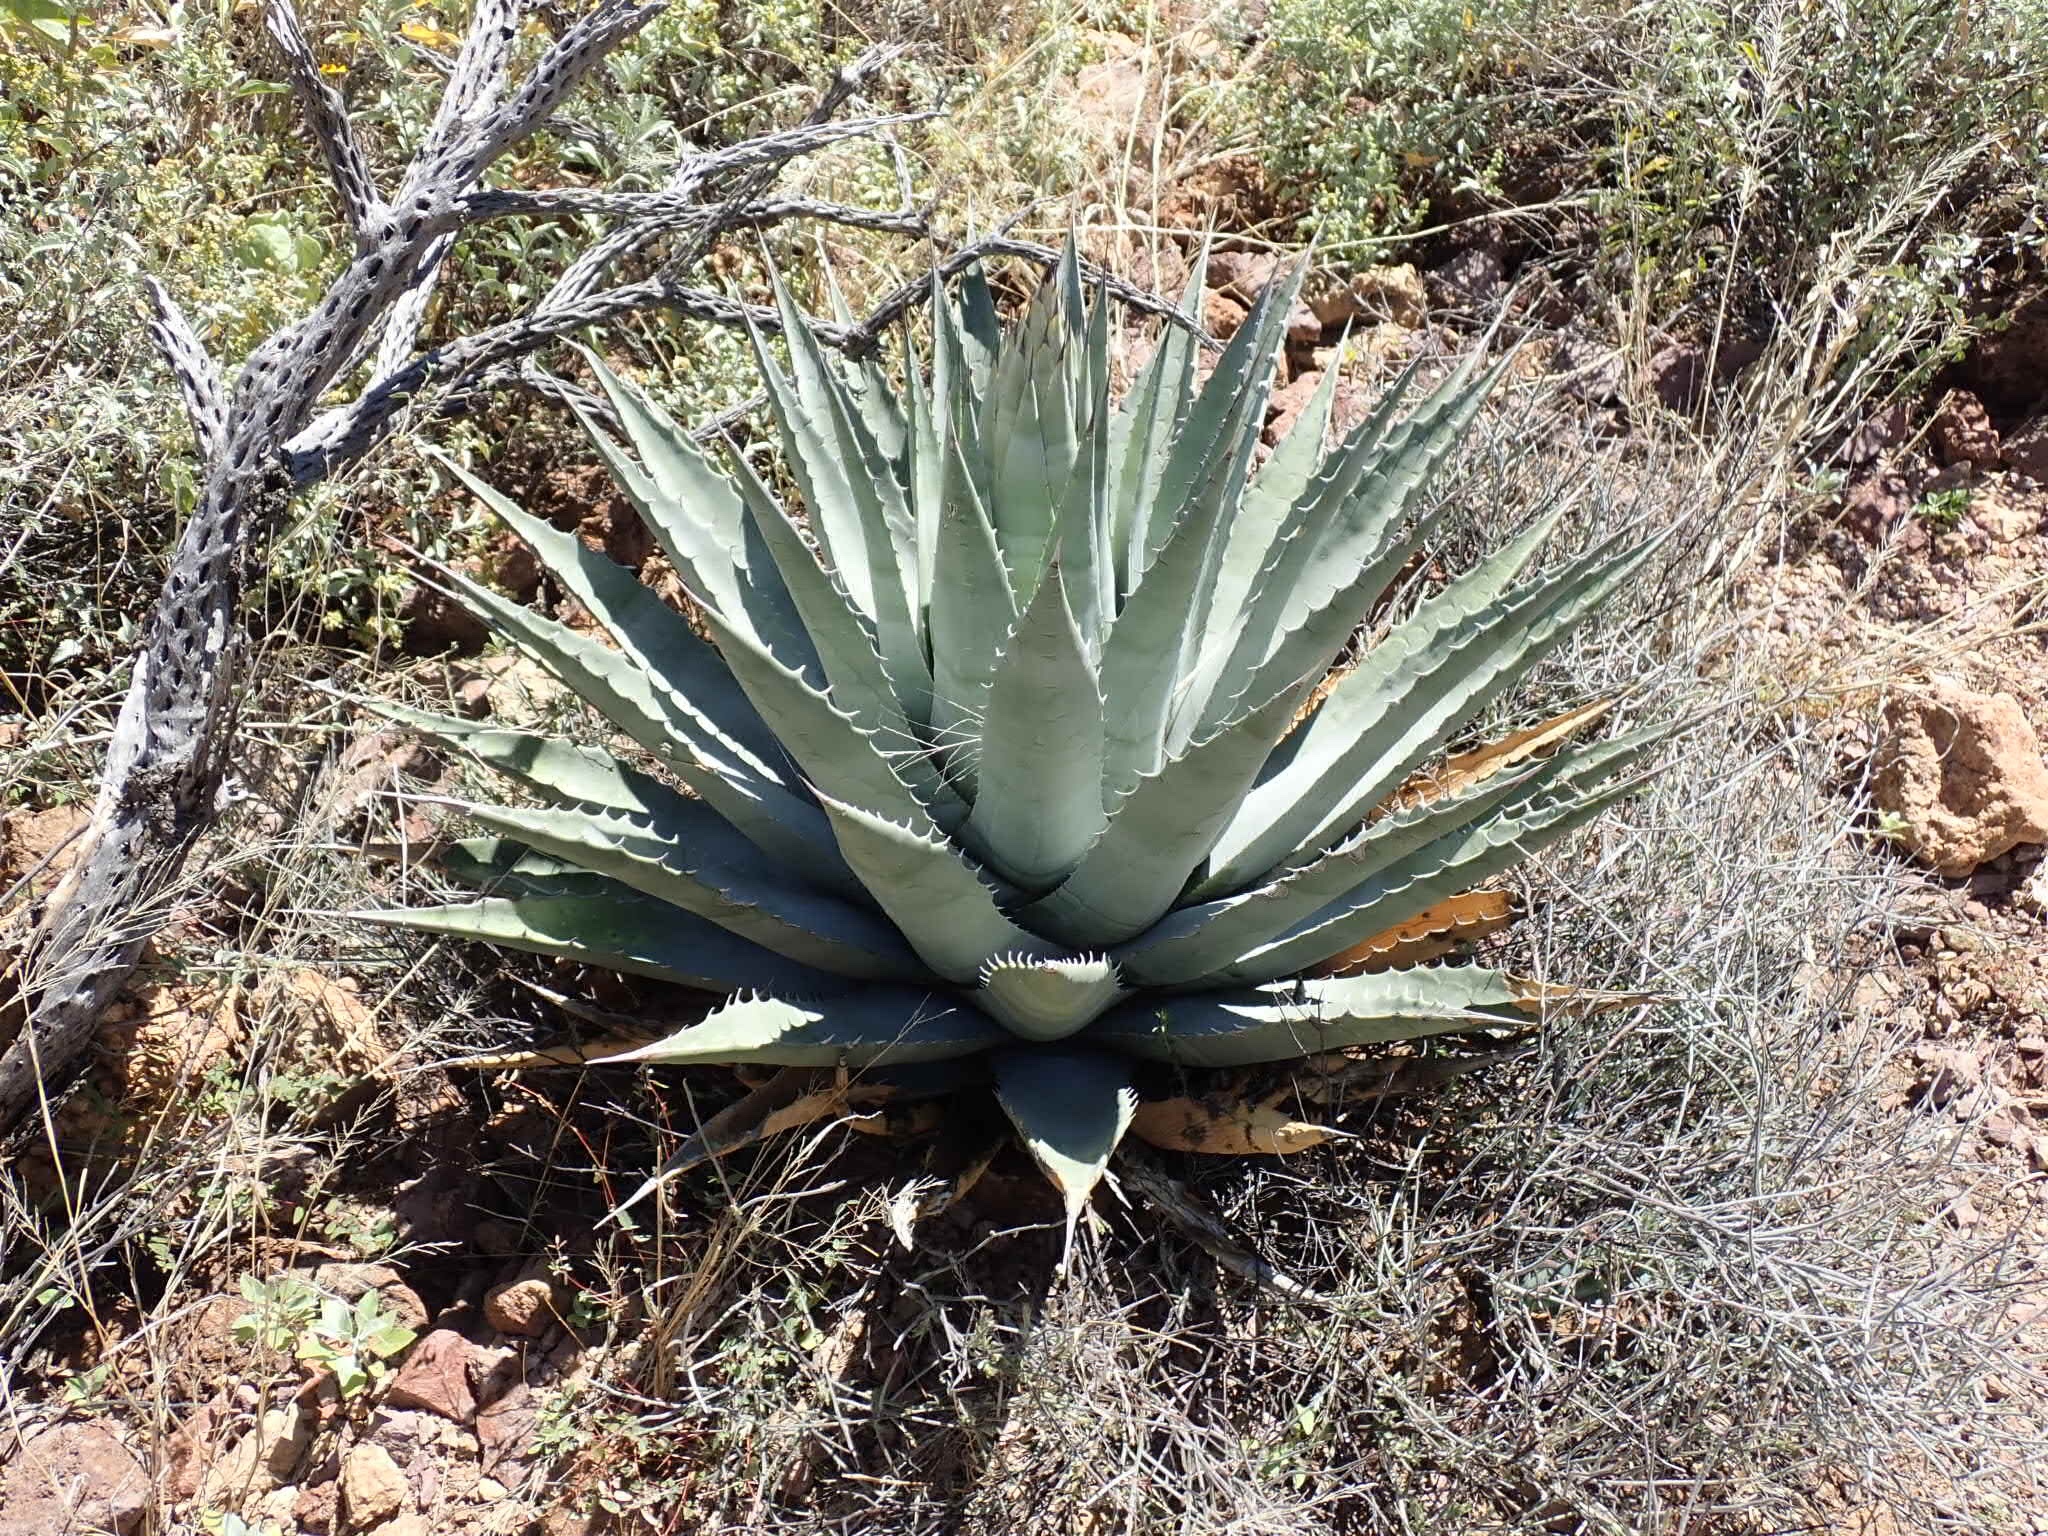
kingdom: Plantae
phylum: Tracheophyta
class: Liliopsida
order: Asparagales
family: Asparagaceae
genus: Agave
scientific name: Agave simplex
